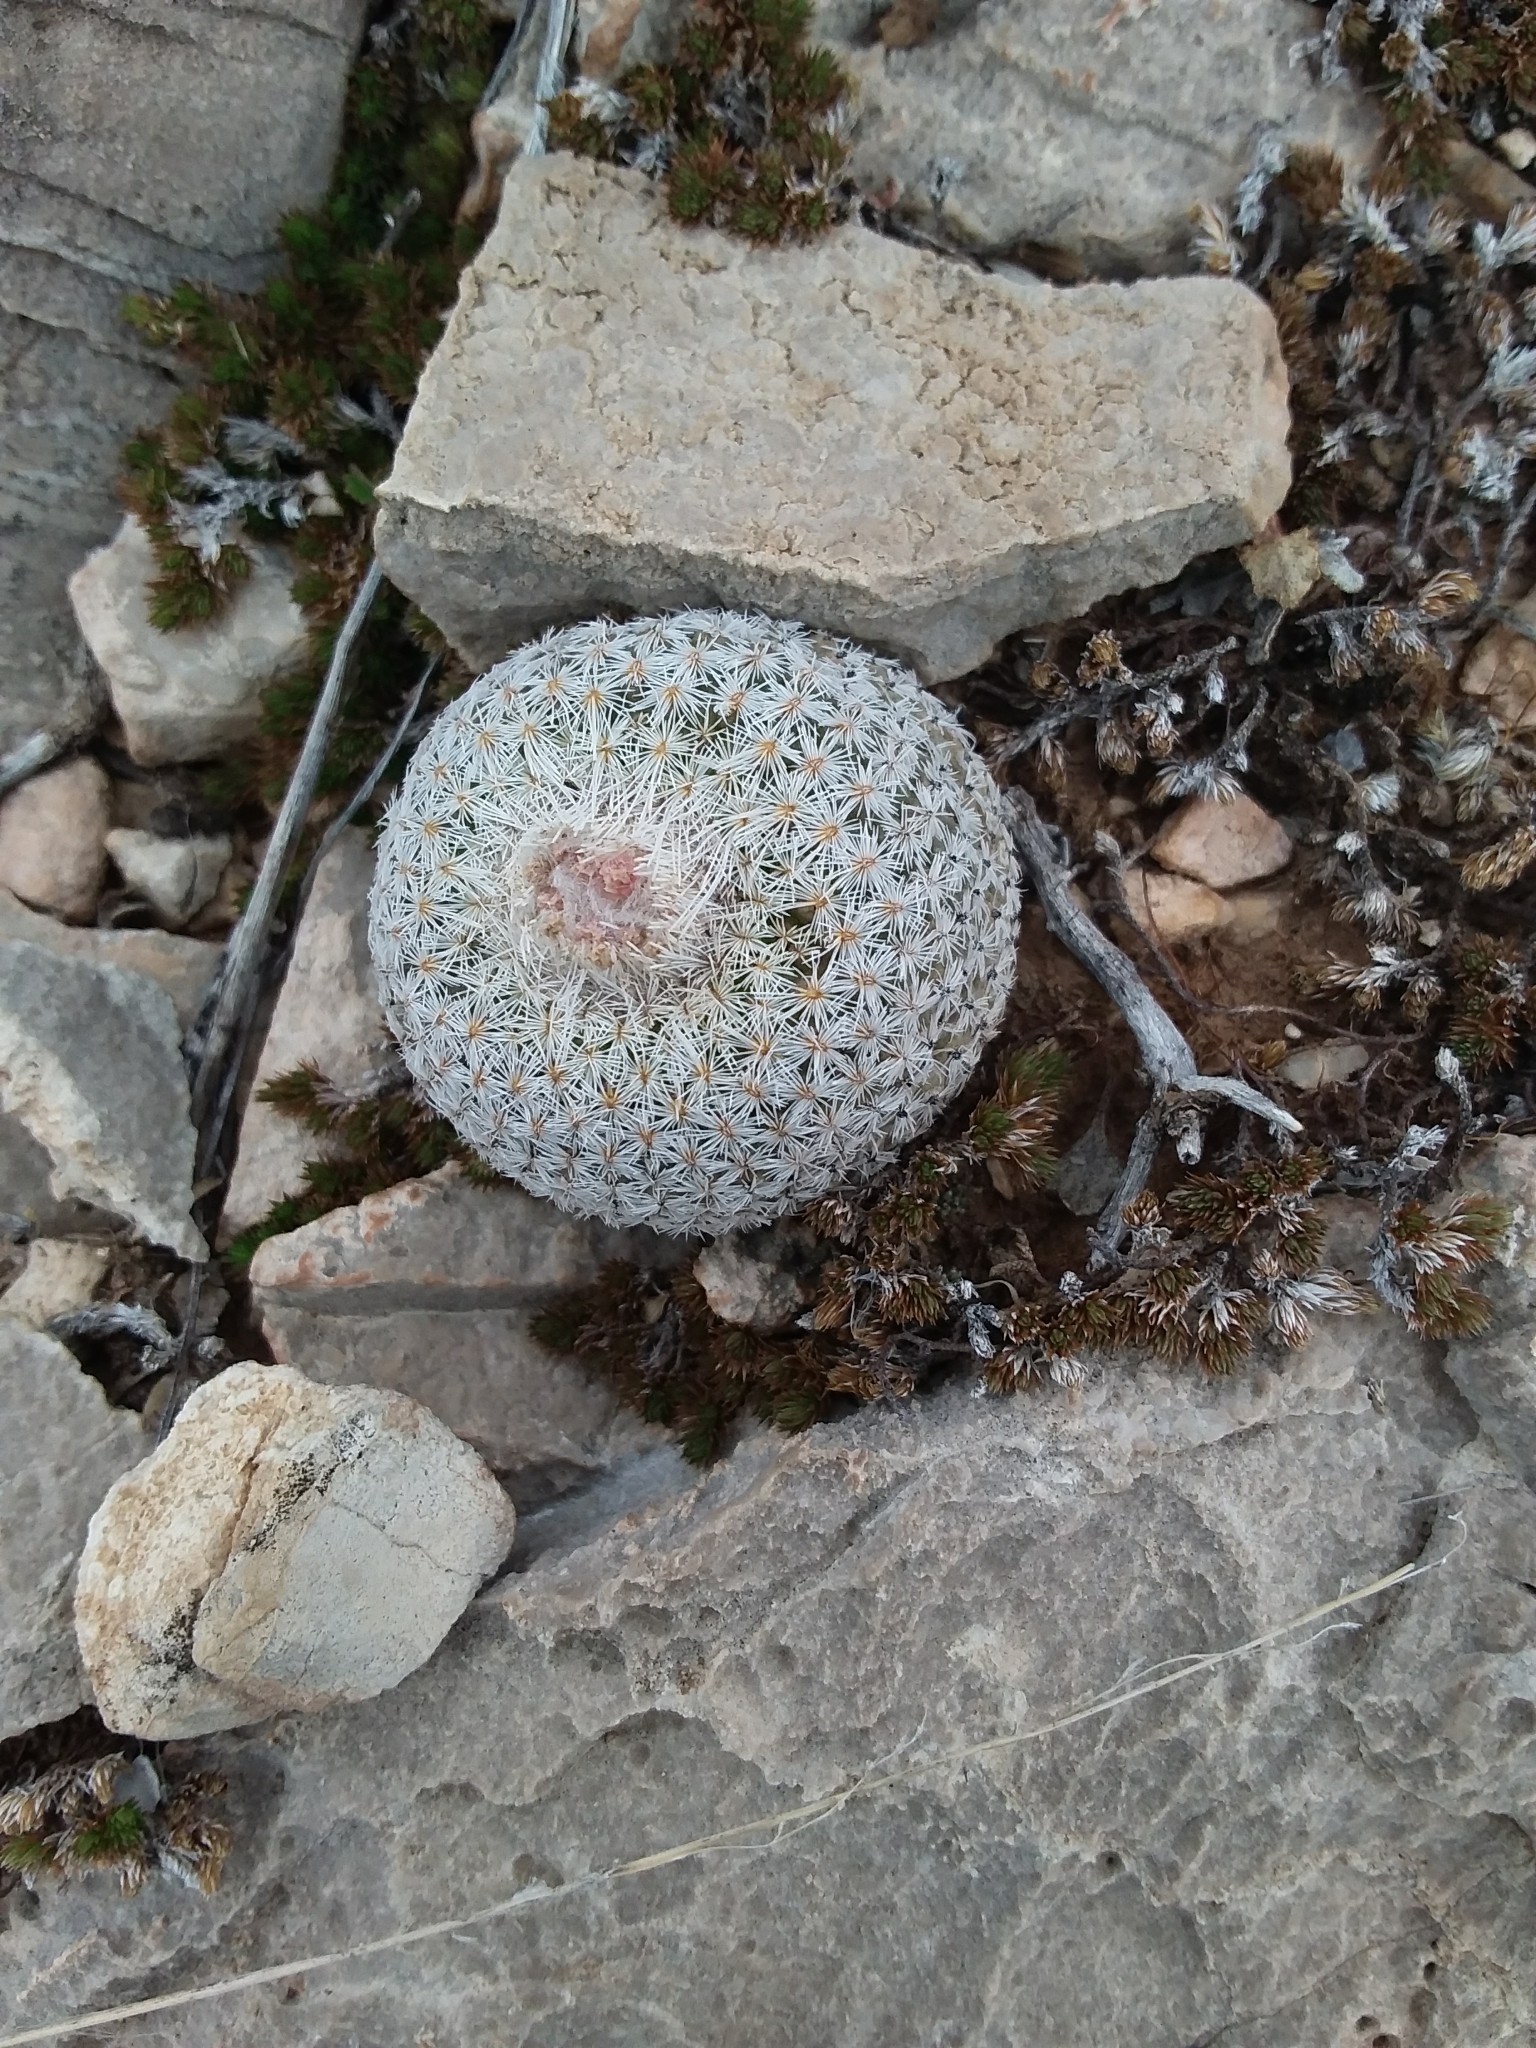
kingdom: Plantae
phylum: Tracheophyta
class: Magnoliopsida
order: Caryophyllales
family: Cactaceae
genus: Epithelantha
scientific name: Epithelantha micromeris
